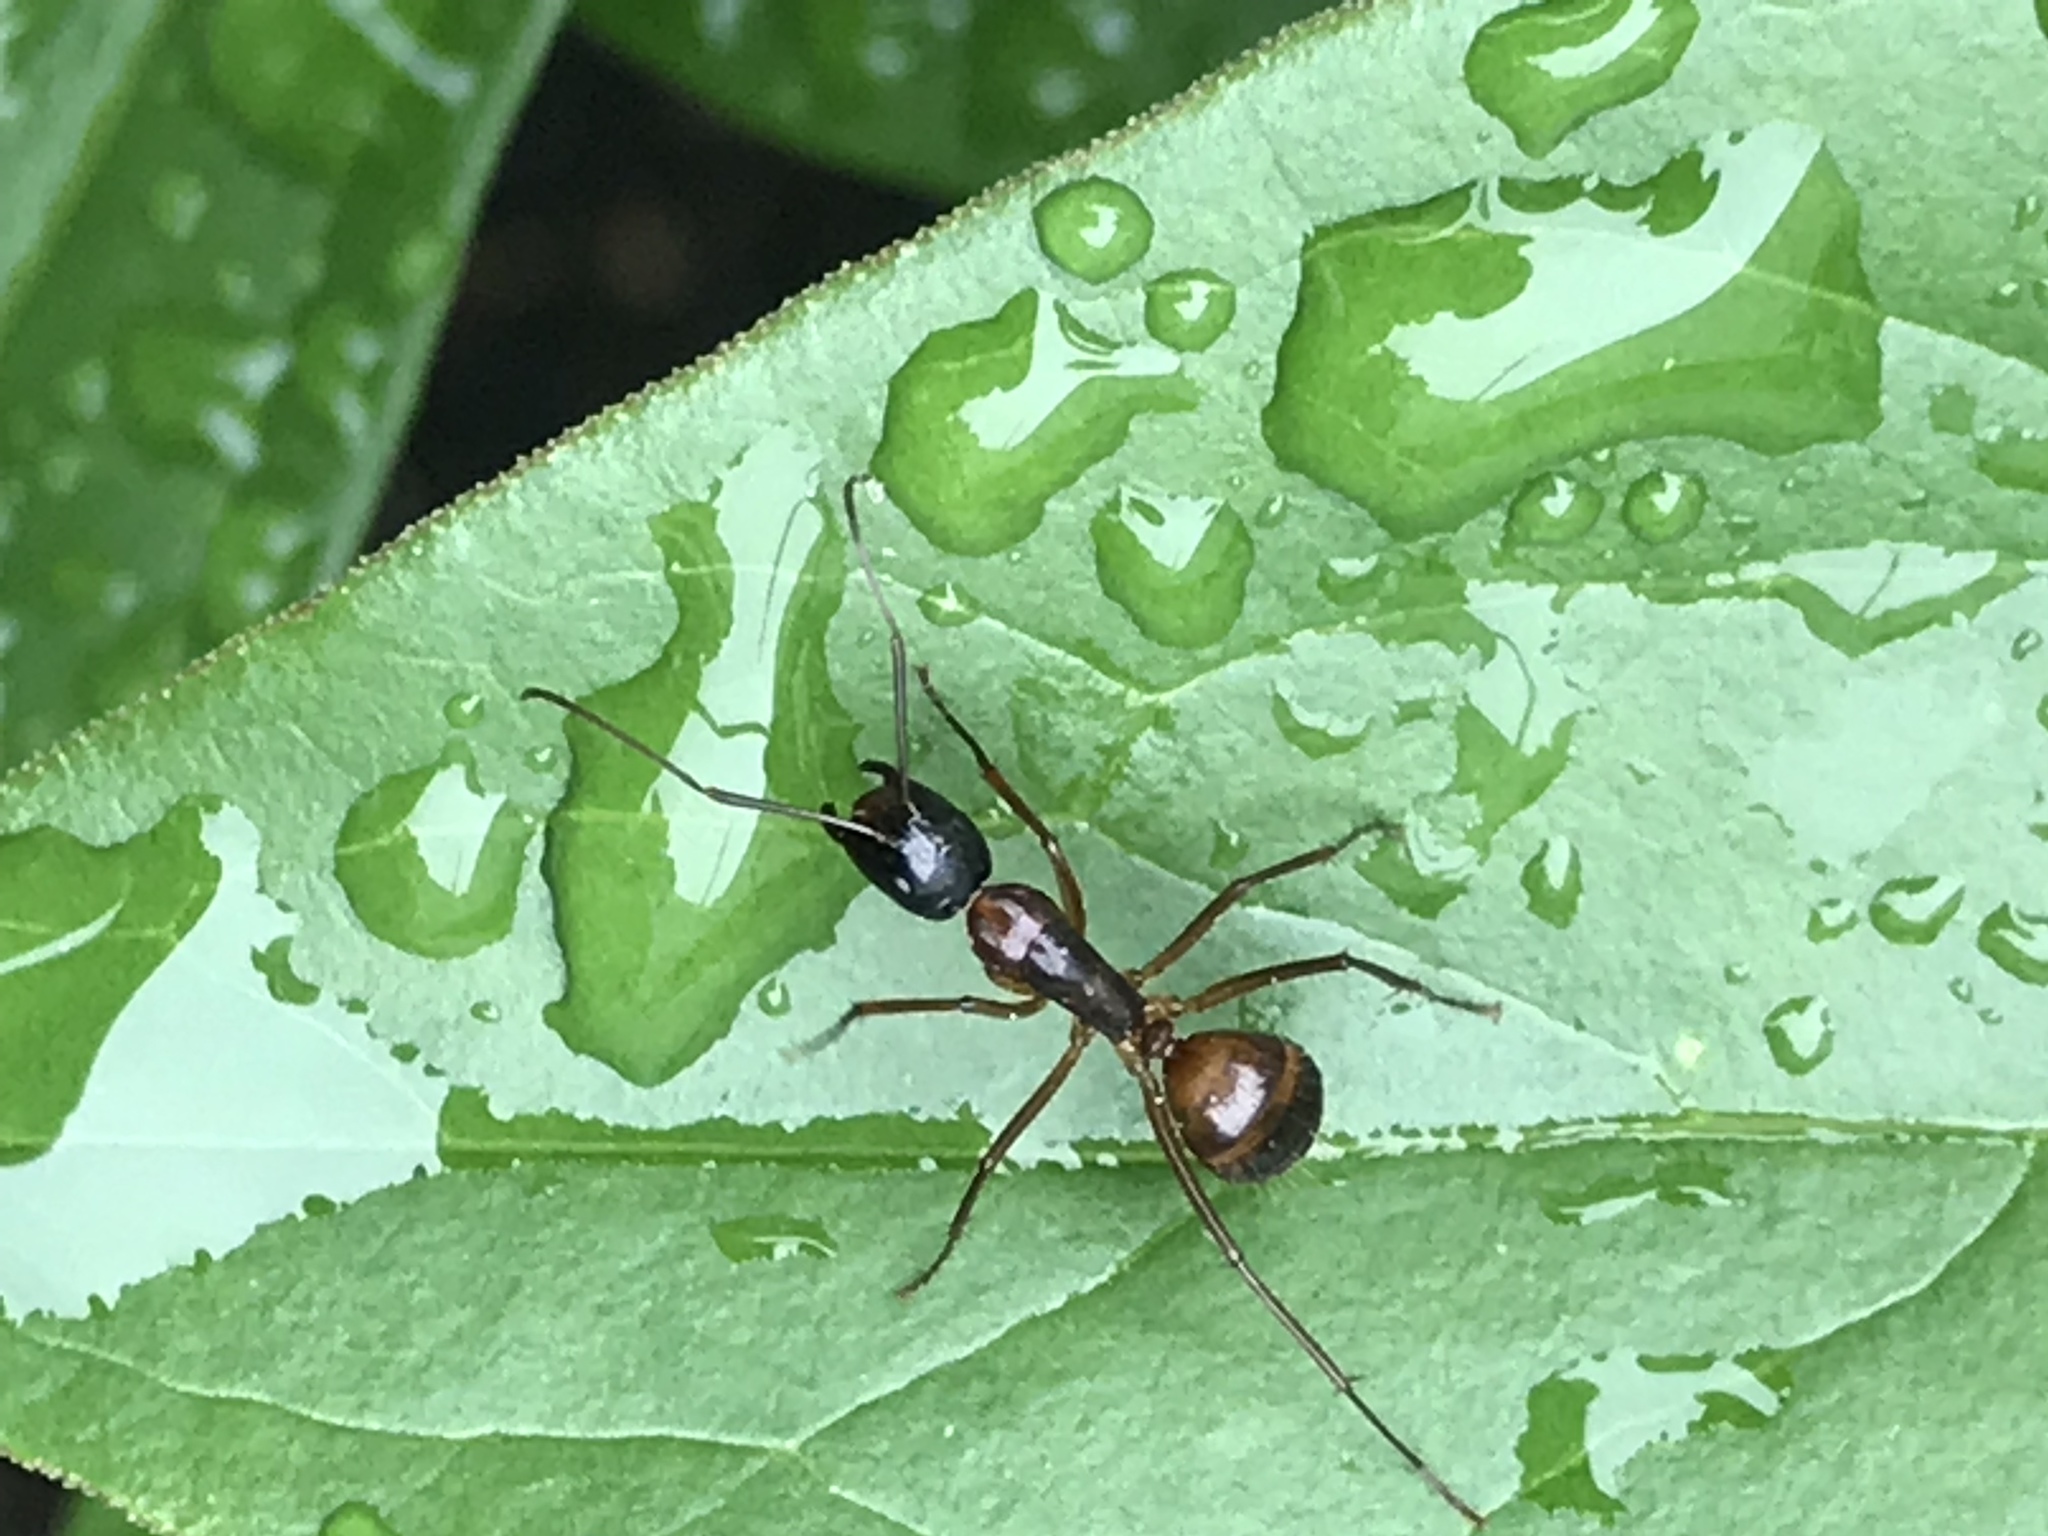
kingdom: Animalia
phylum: Arthropoda
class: Insecta
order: Hymenoptera
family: Formicidae
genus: Camponotus
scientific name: Camponotus americanus
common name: American carpenter ant
